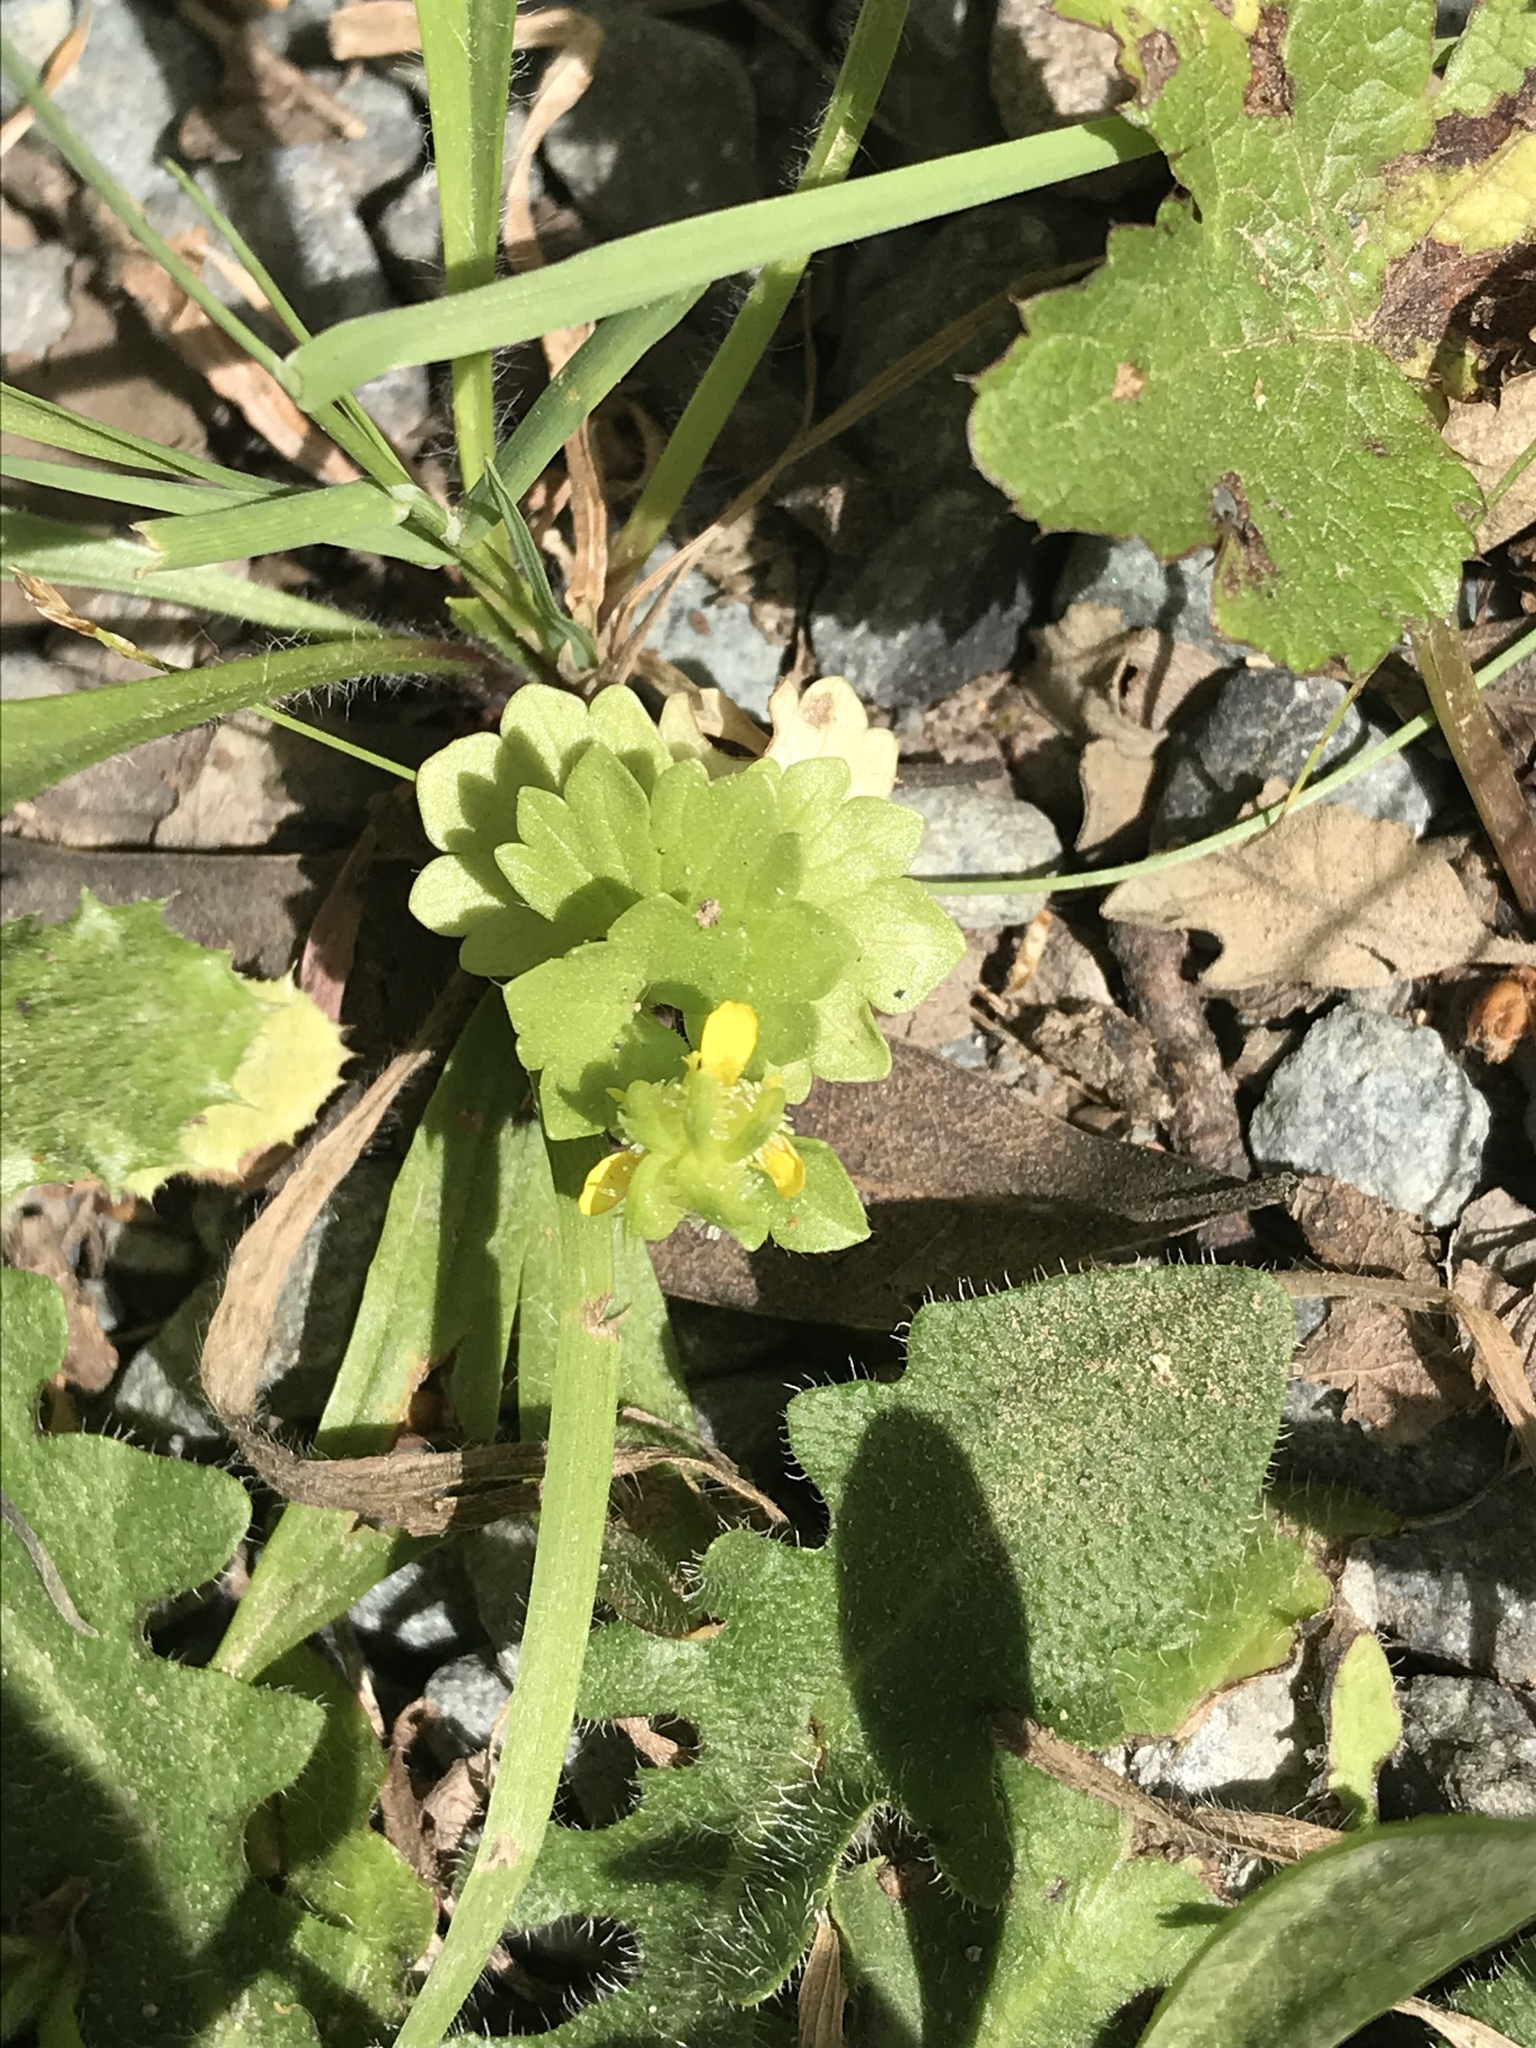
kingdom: Plantae
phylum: Tracheophyta
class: Magnoliopsida
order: Ranunculales
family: Ranunculaceae
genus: Ranunculus
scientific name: Ranunculus muricatus
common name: Rough-fruited buttercup
